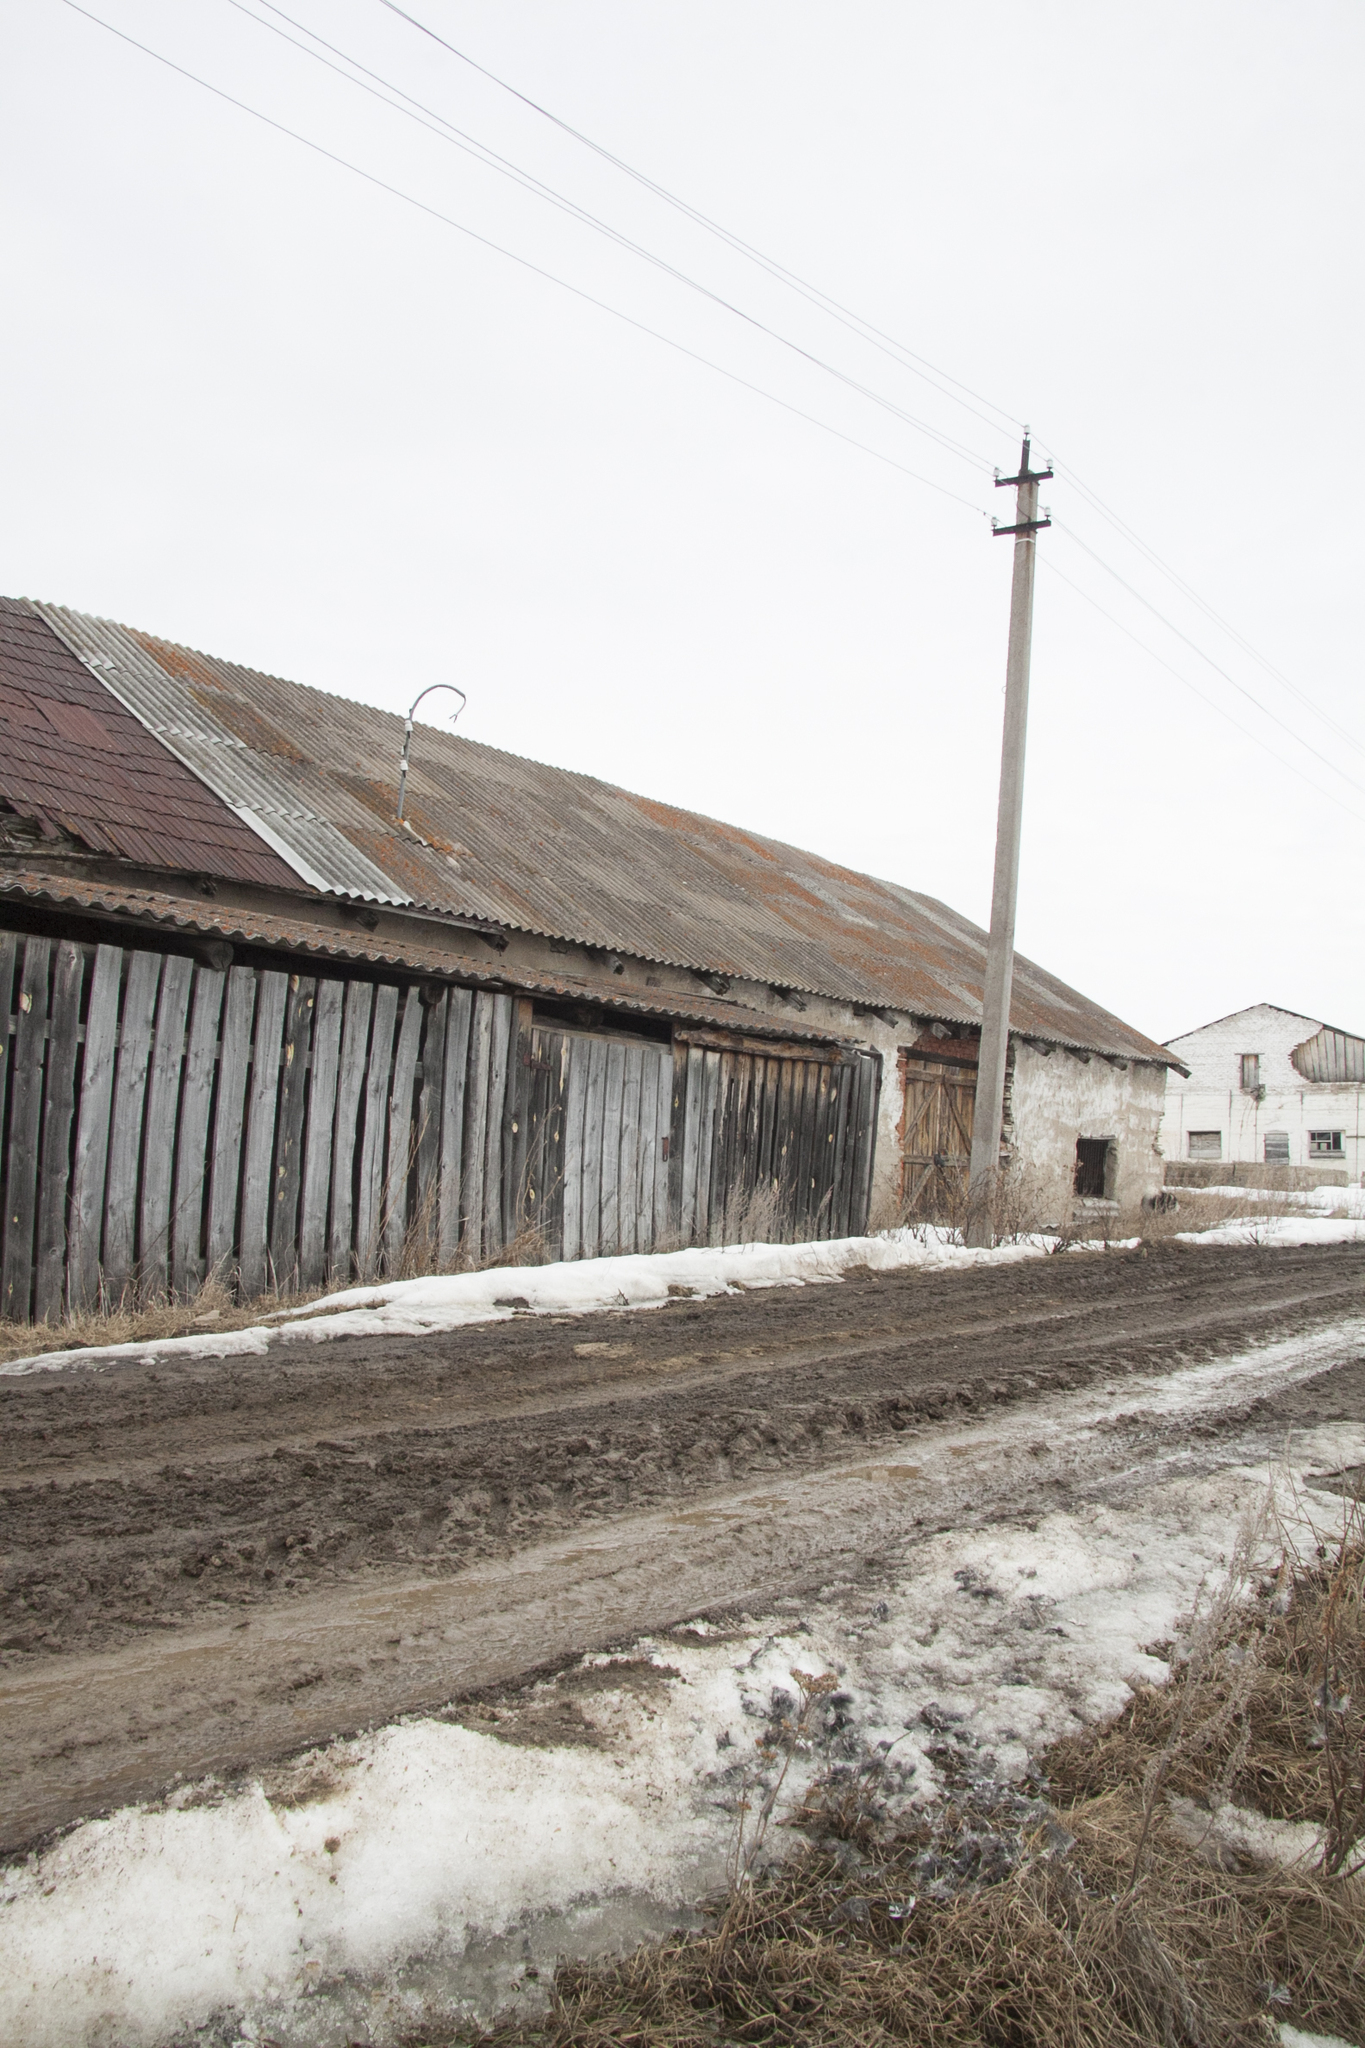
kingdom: Animalia
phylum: Chordata
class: Aves
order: Strigiformes
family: Strigidae
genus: Aegolius
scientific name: Aegolius funereus
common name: Boreal owl
